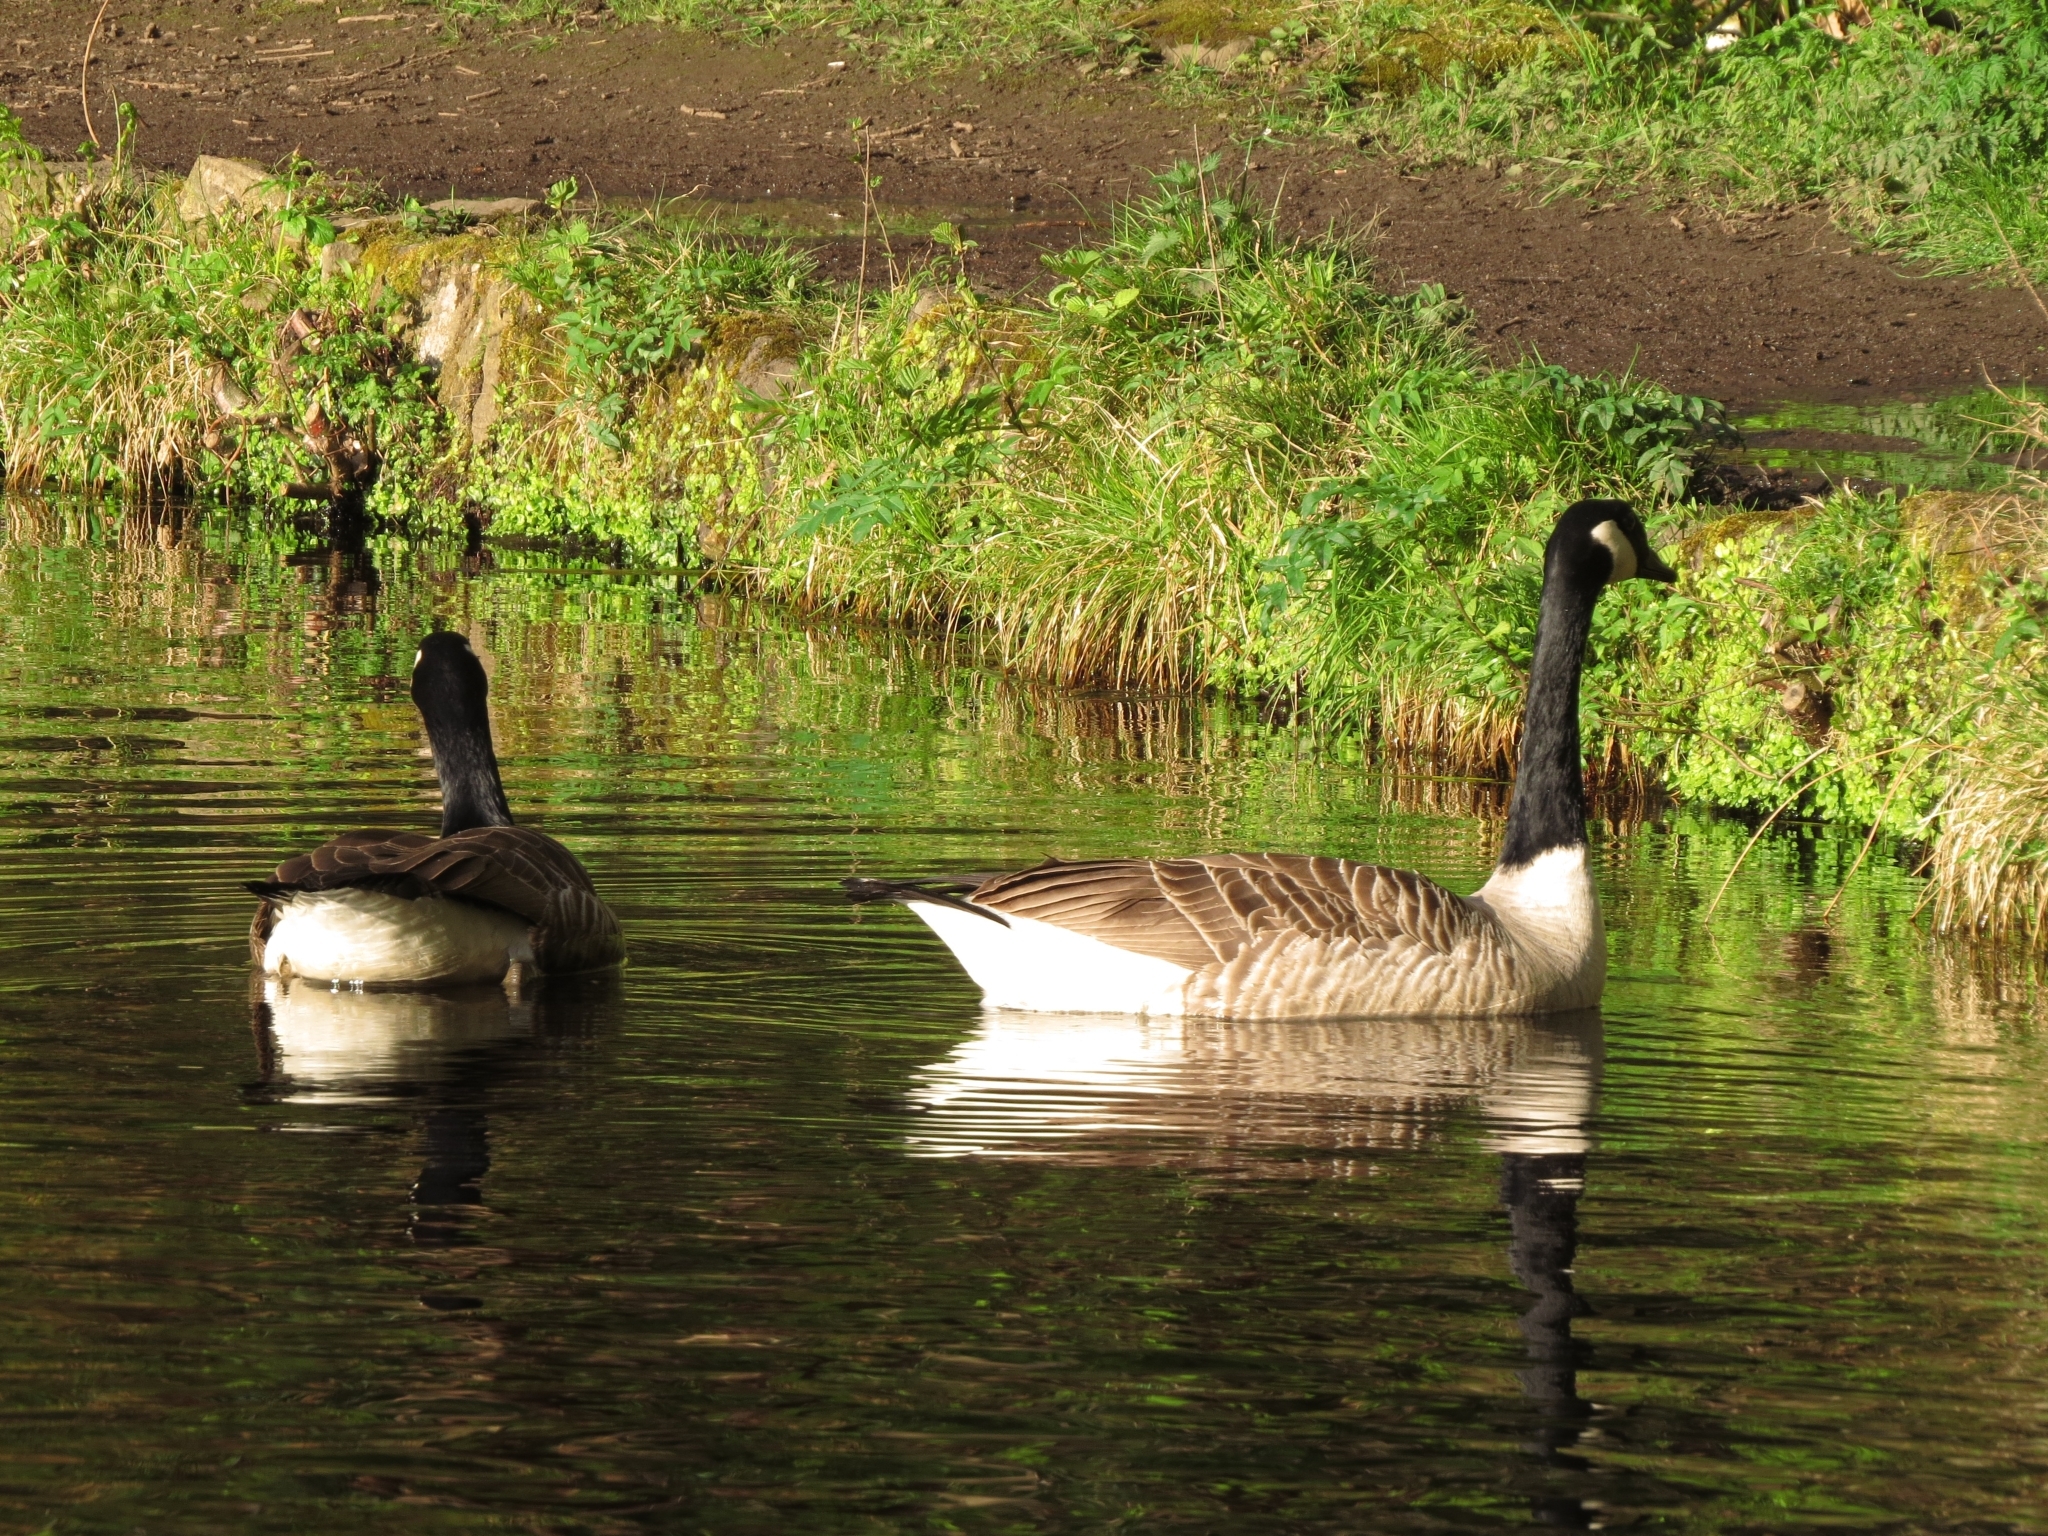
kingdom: Animalia
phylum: Chordata
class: Aves
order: Anseriformes
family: Anatidae
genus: Branta
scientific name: Branta canadensis
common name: Canada goose
